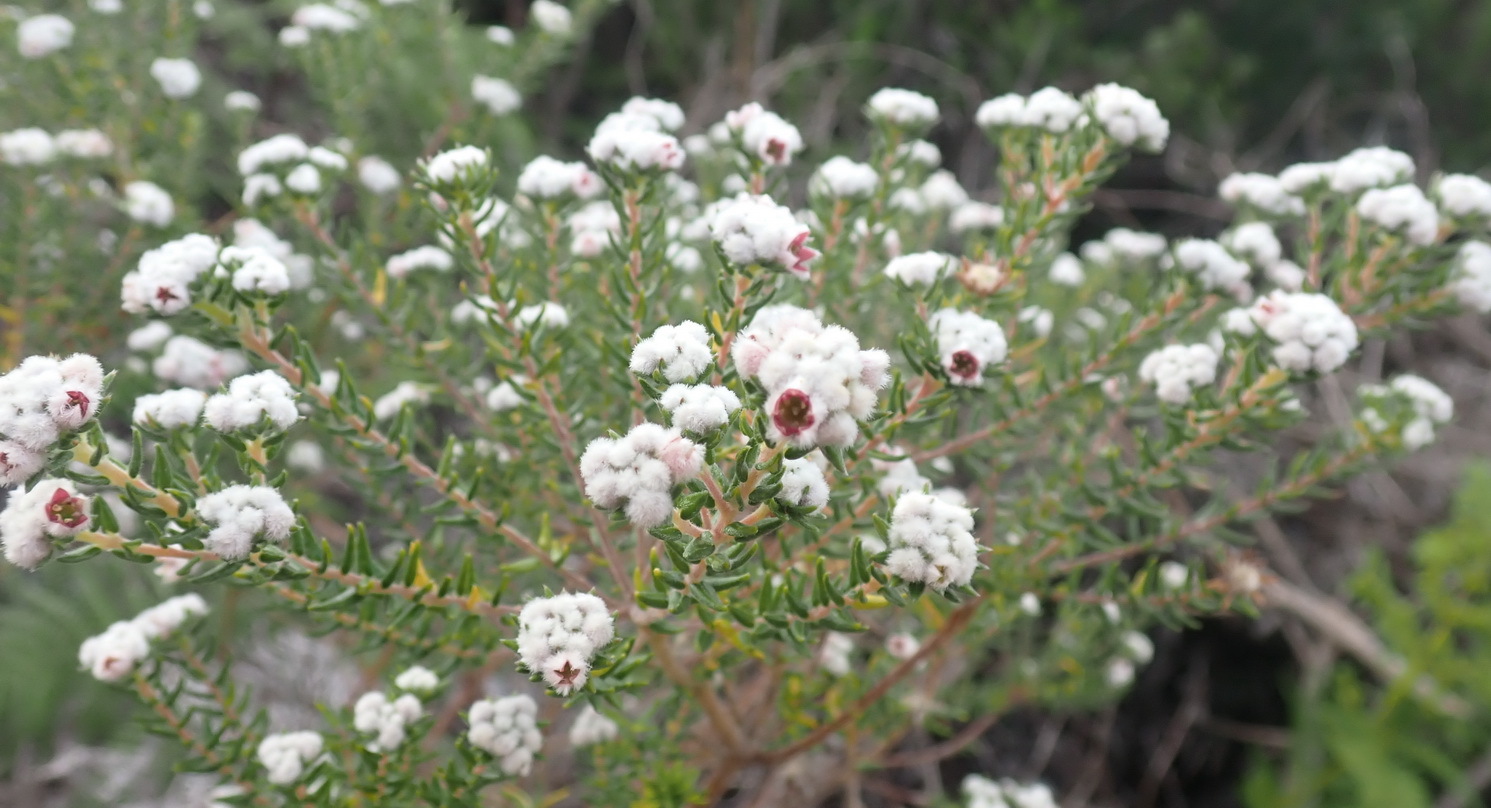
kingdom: Plantae
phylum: Tracheophyta
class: Magnoliopsida
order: Rosales
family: Rhamnaceae
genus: Phylica
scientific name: Phylica purpurea
